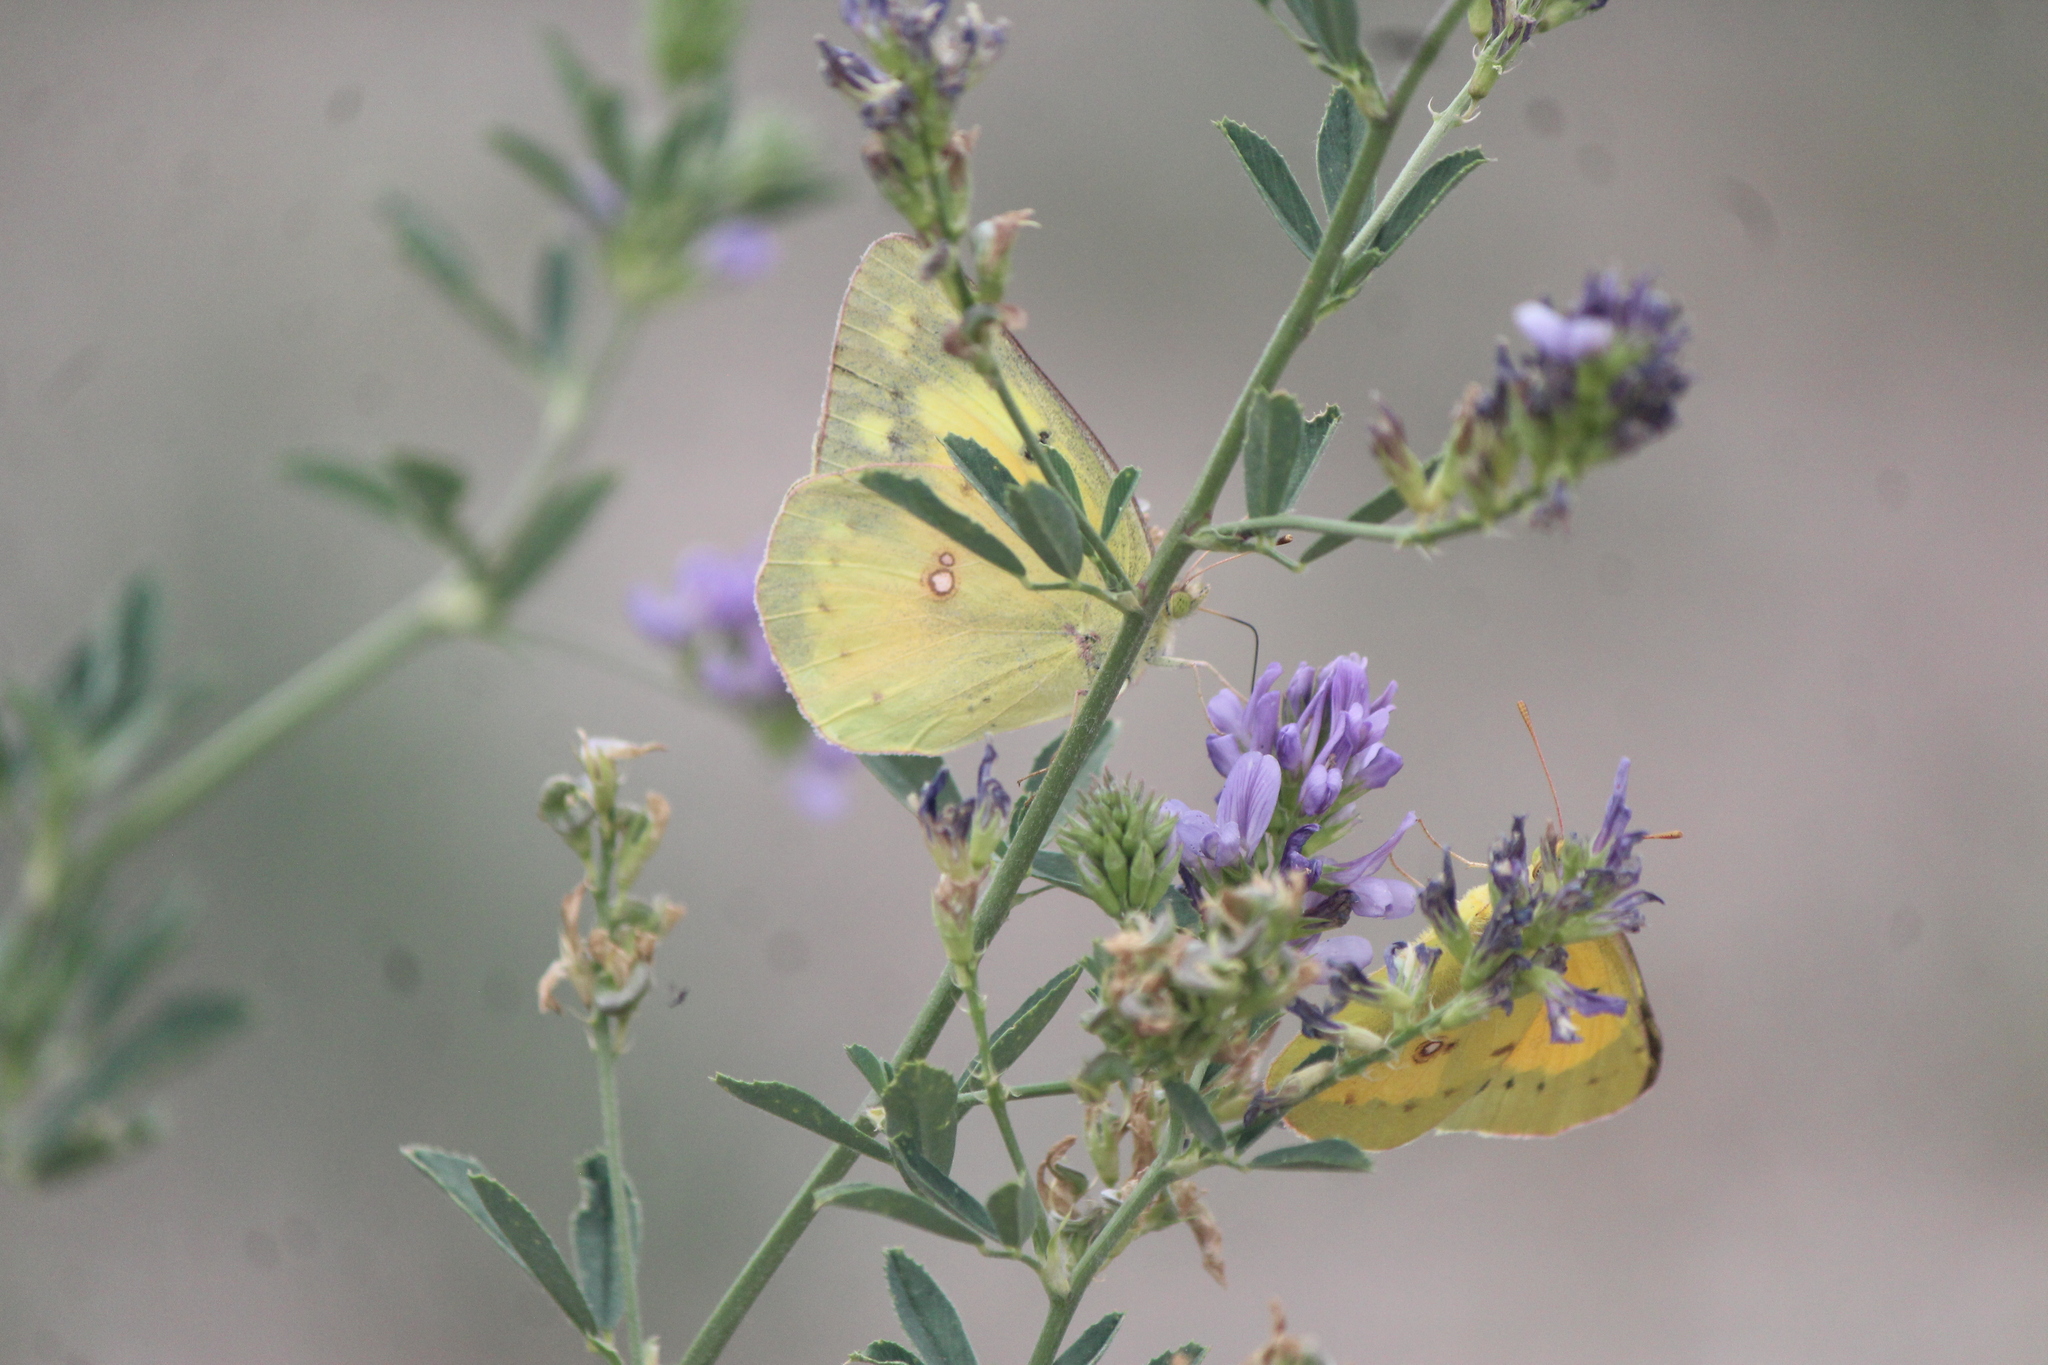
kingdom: Animalia
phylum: Arthropoda
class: Insecta
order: Lepidoptera
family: Pieridae
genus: Colias
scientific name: Colias eurytheme
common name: Alfalfa butterfly
